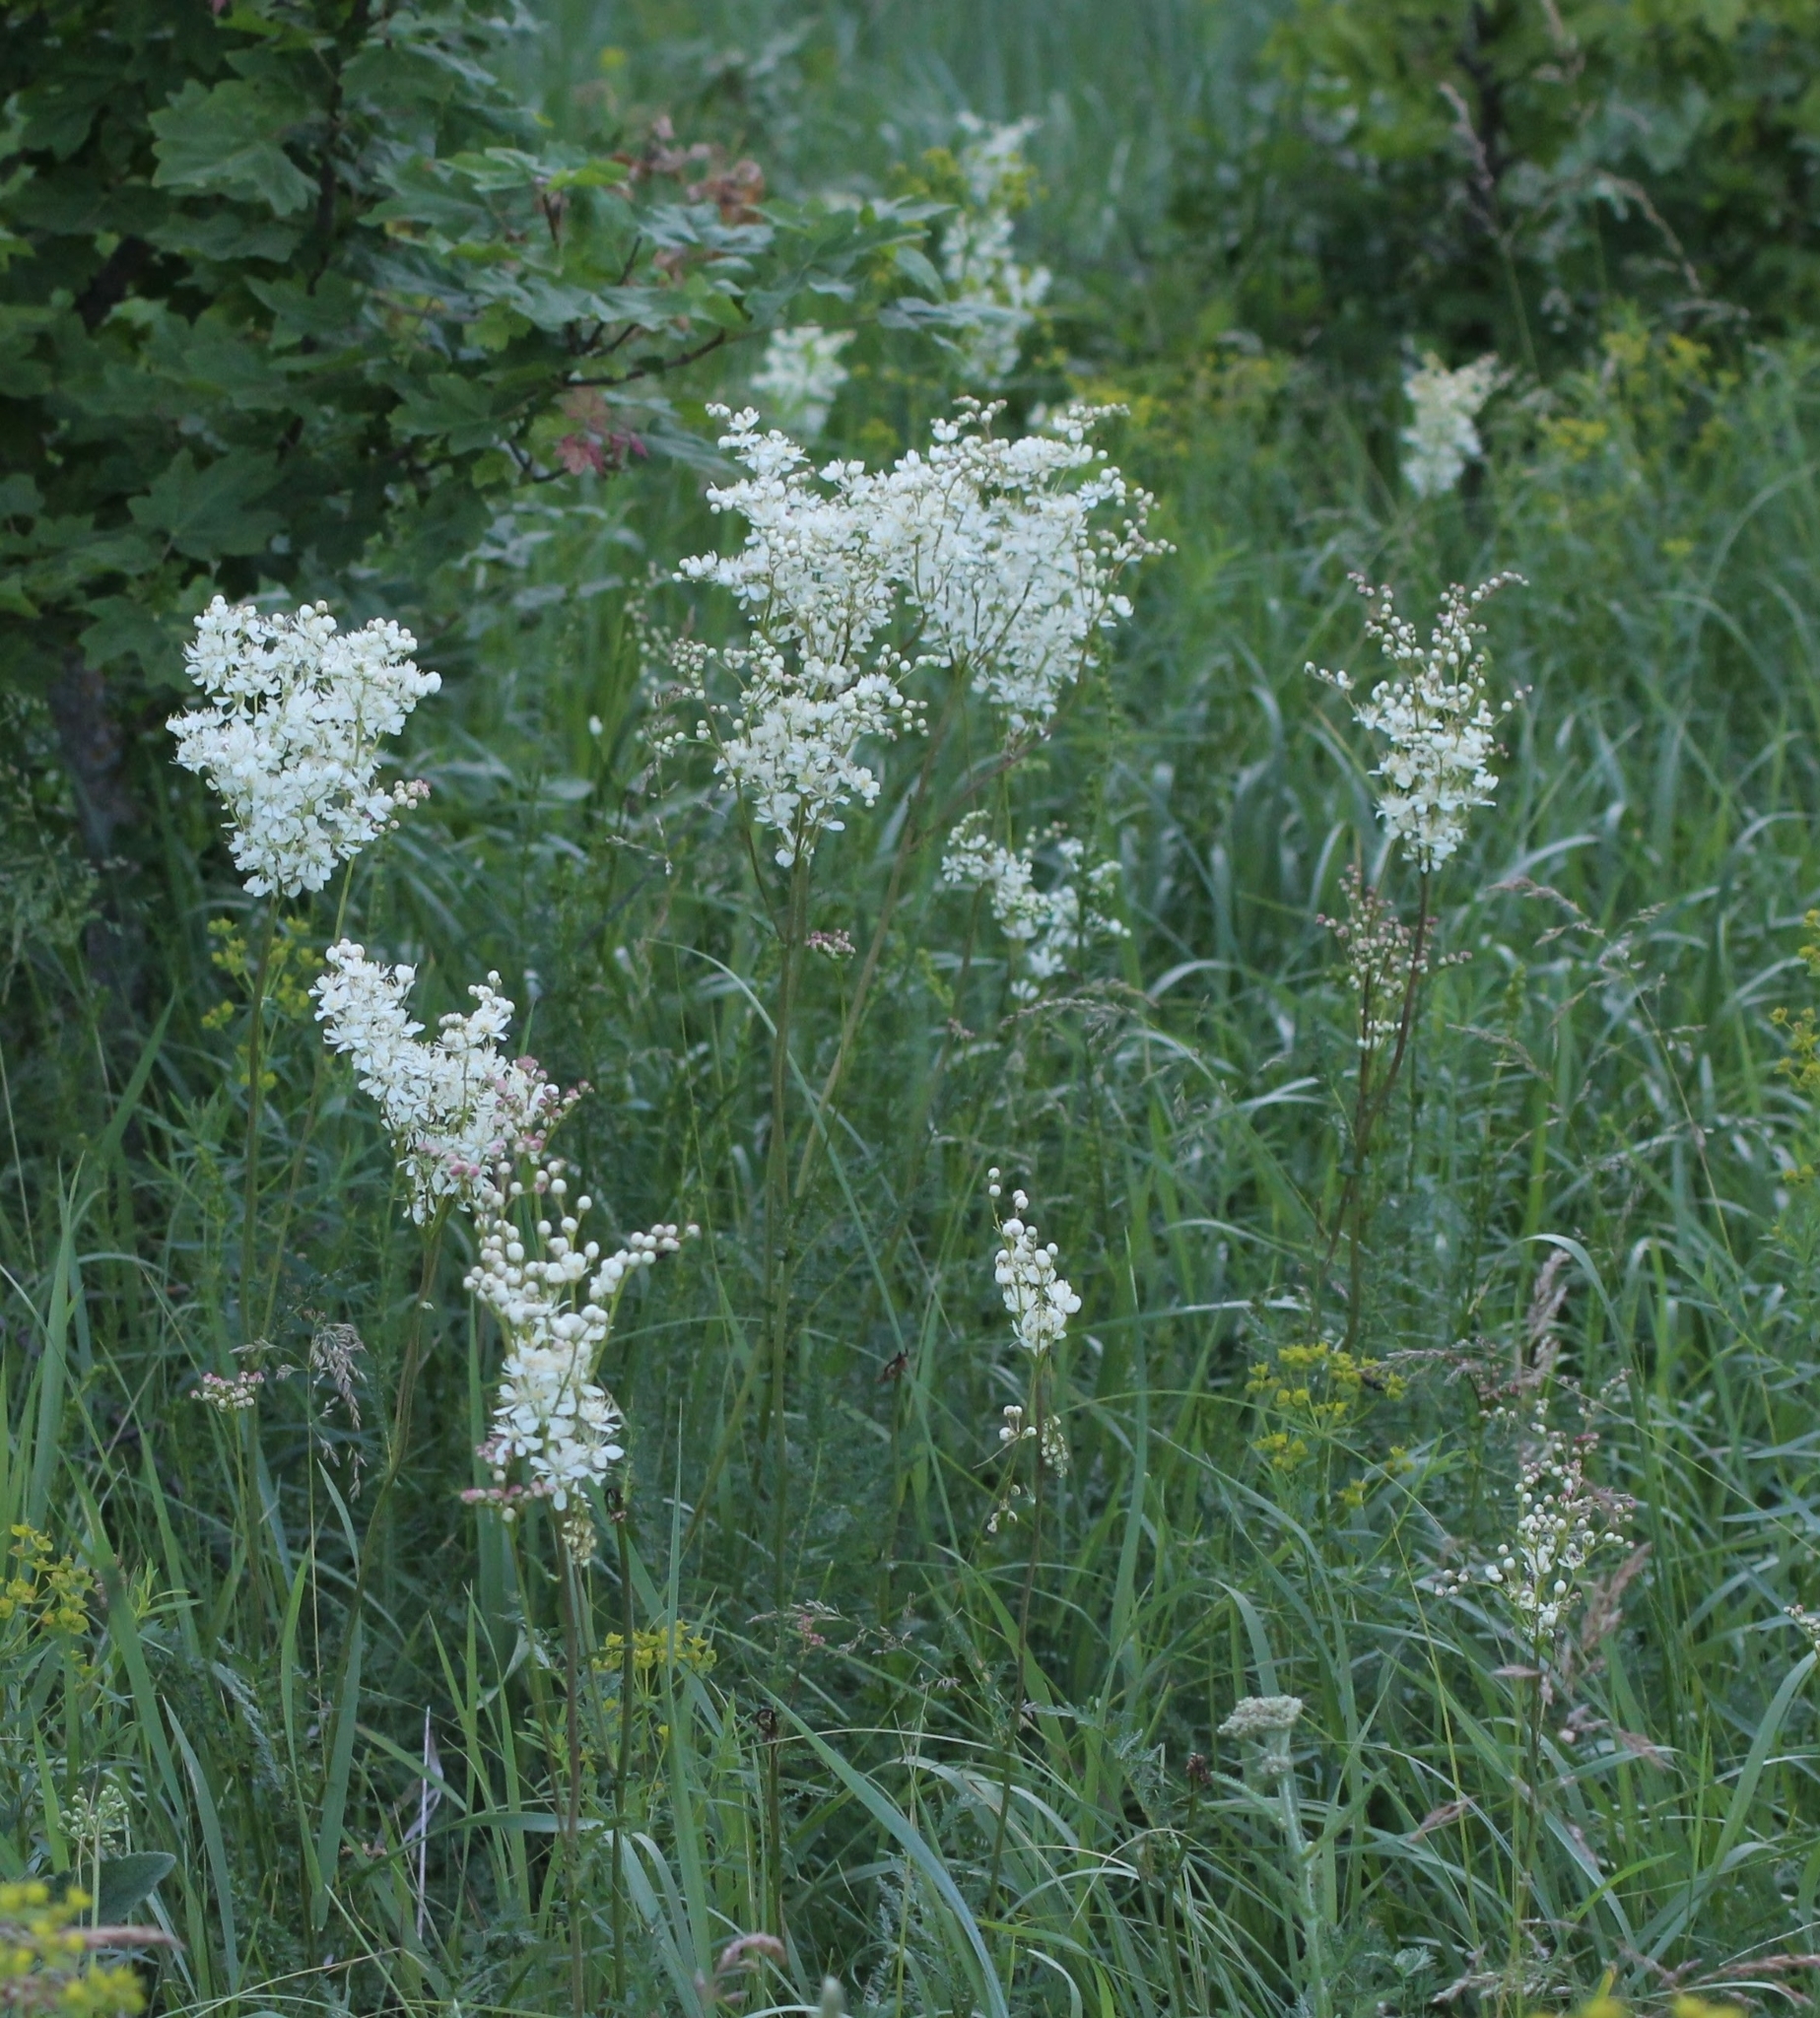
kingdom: Plantae
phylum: Tracheophyta
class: Magnoliopsida
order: Rosales
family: Rosaceae
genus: Filipendula
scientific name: Filipendula vulgaris
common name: Dropwort
